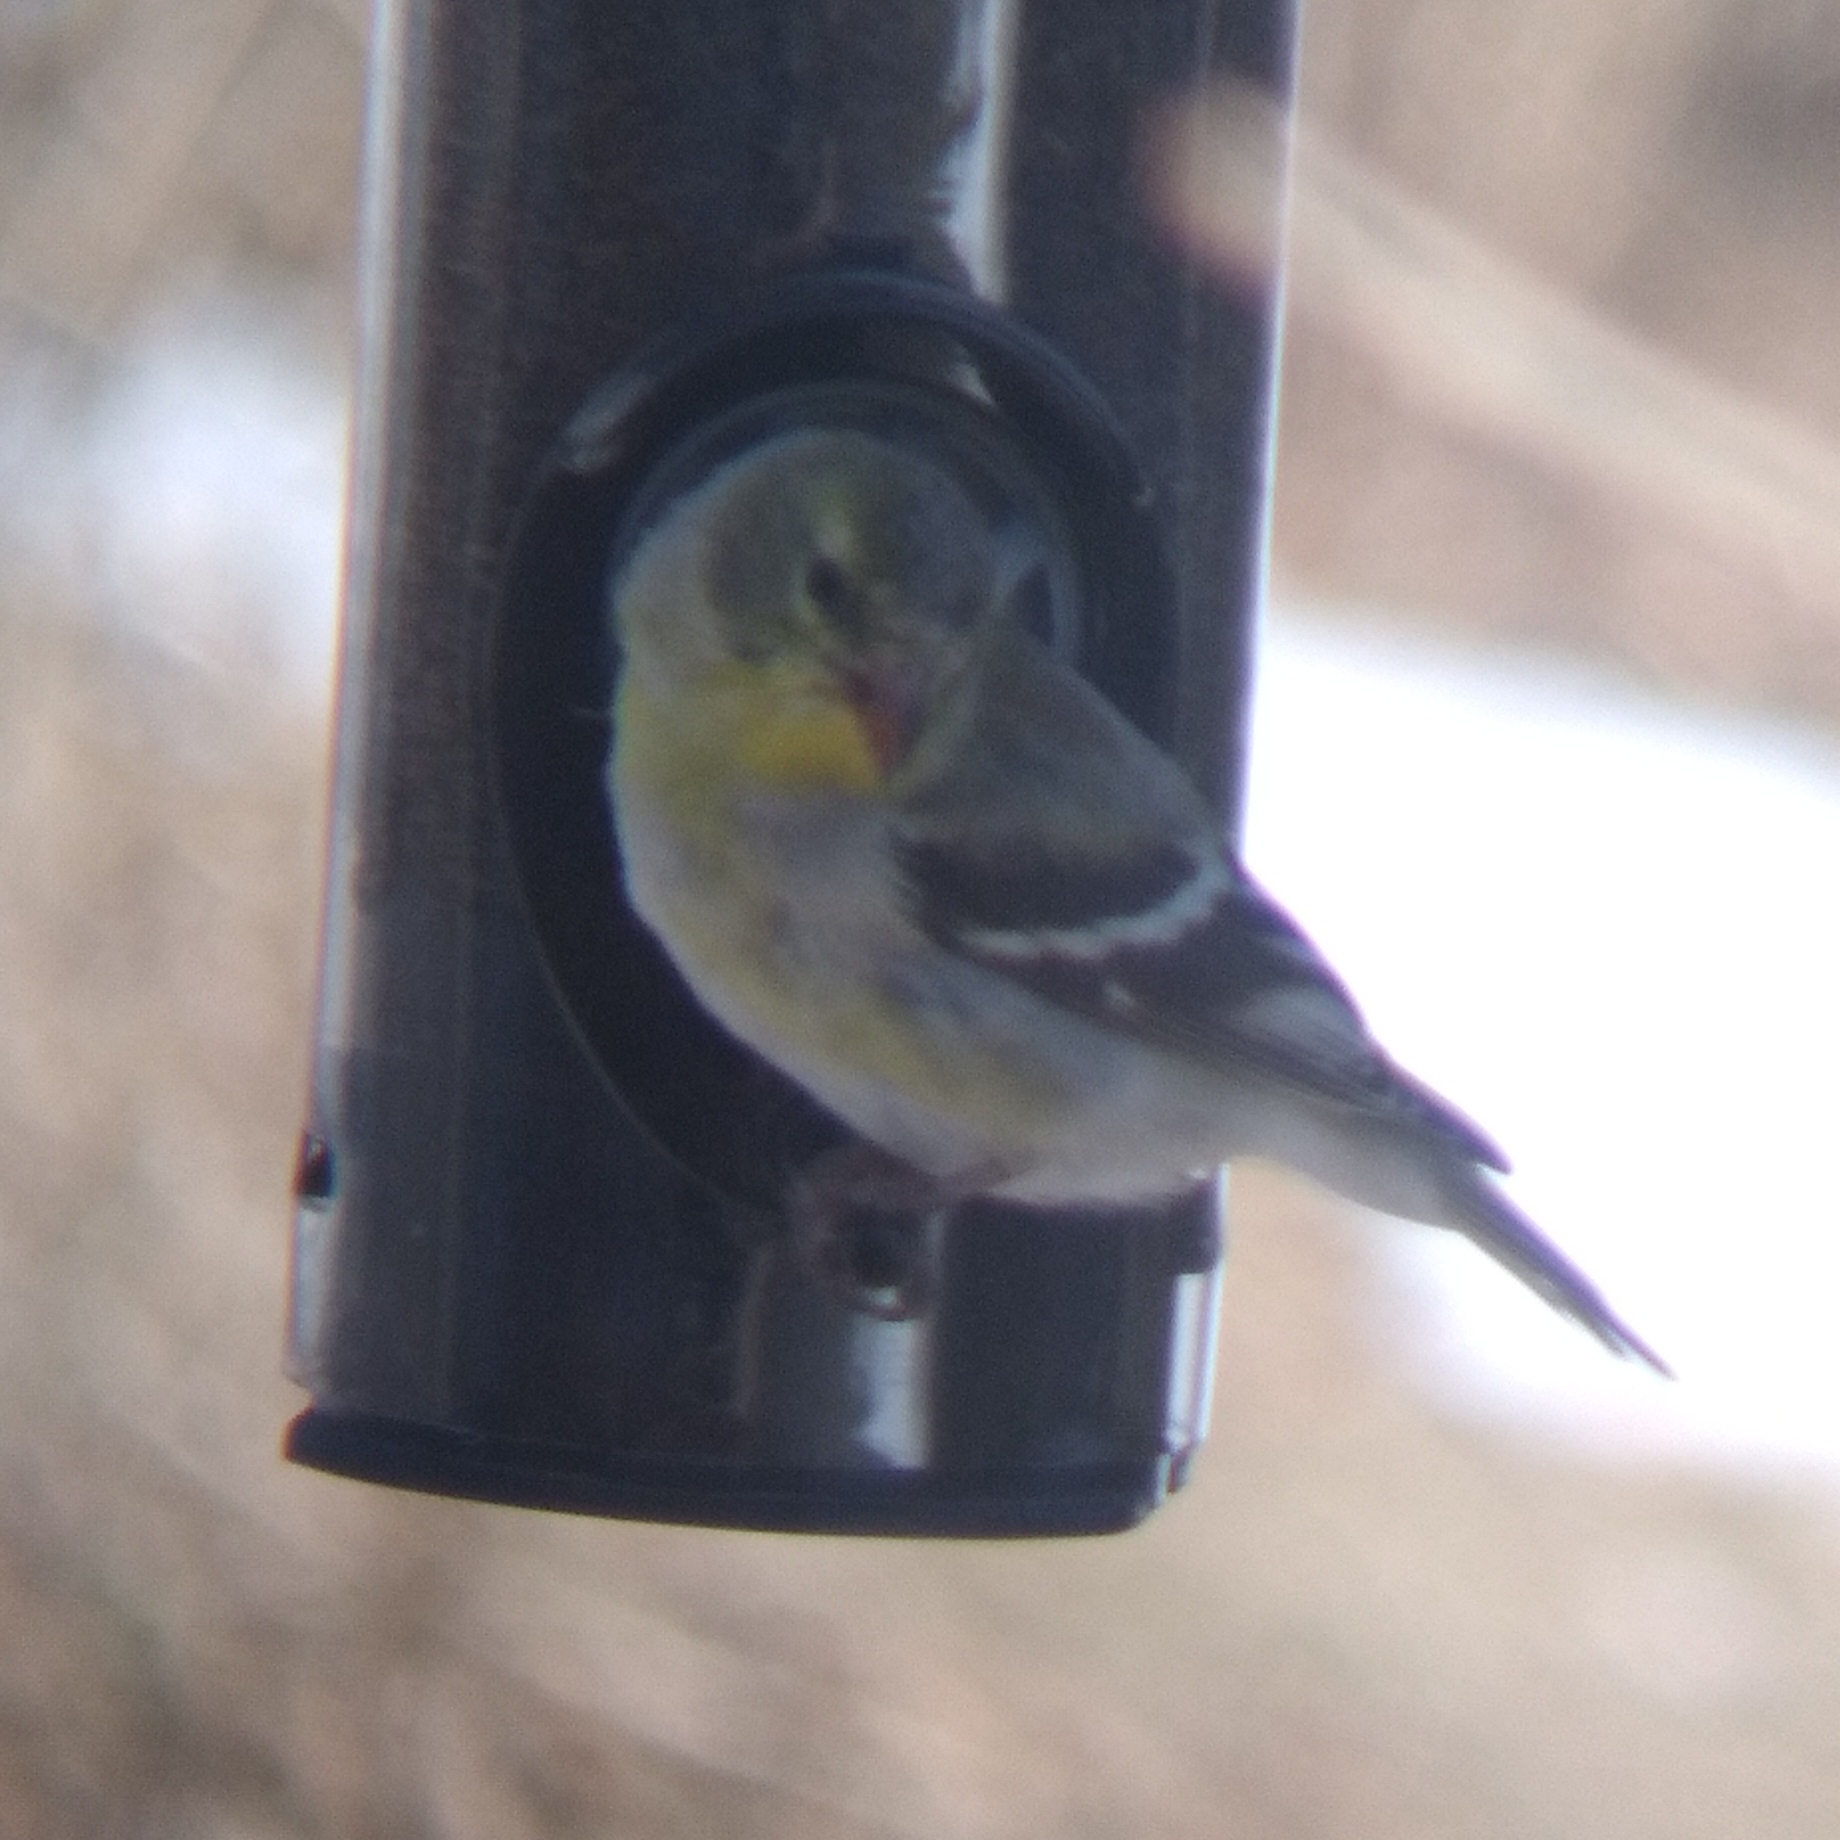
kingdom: Animalia
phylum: Chordata
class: Aves
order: Passeriformes
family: Fringillidae
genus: Spinus
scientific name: Spinus tristis
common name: American goldfinch
